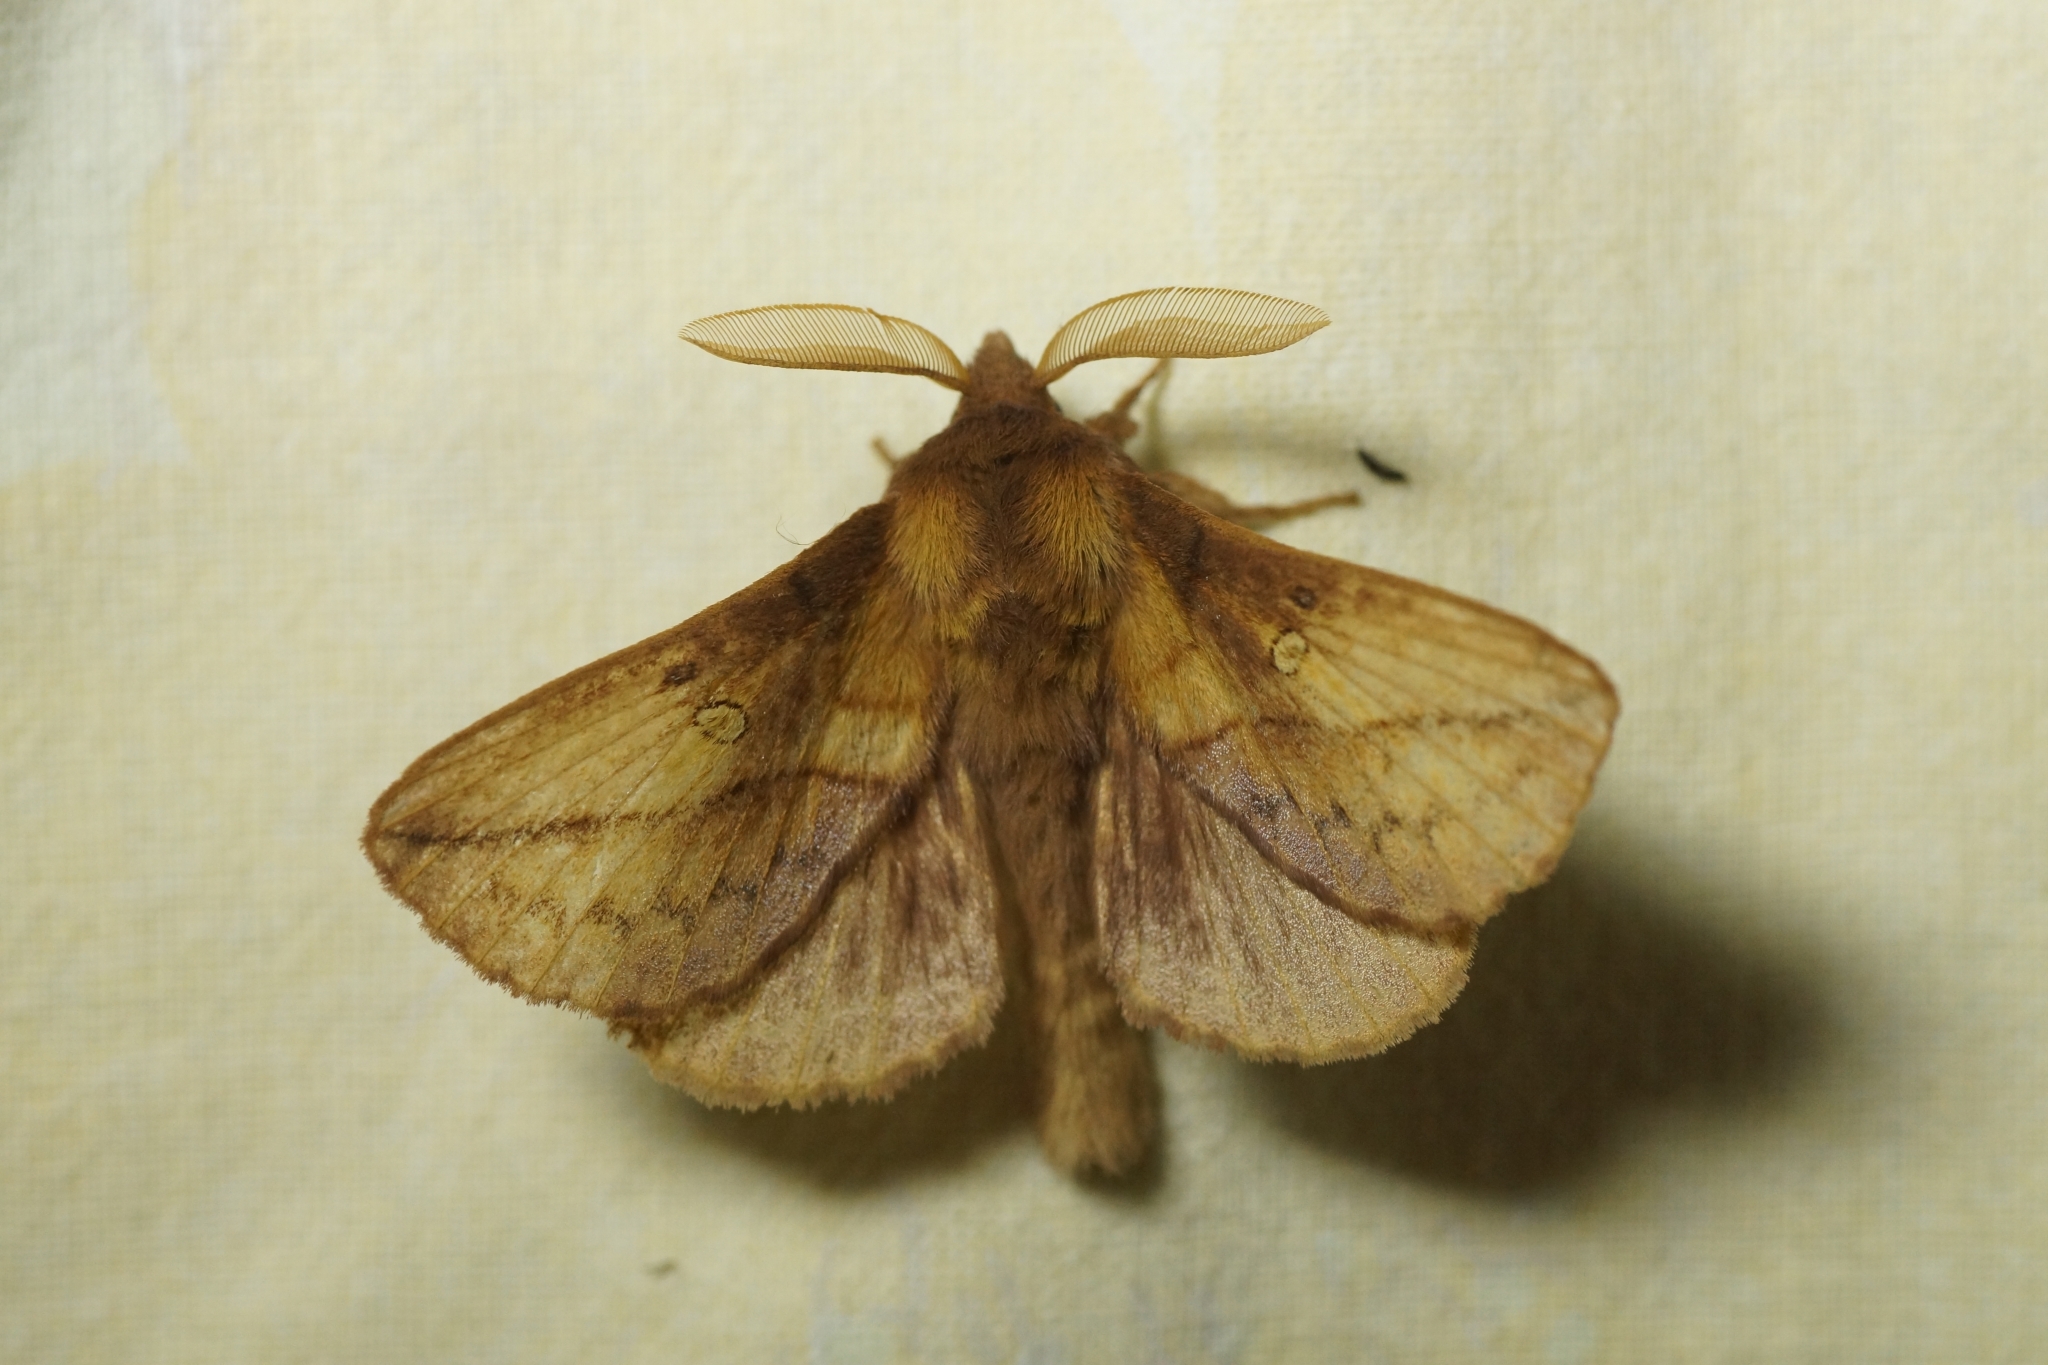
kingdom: Animalia
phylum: Arthropoda
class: Insecta
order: Lepidoptera
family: Lasiocampidae
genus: Euthrix
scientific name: Euthrix potatoria
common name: Drinker
